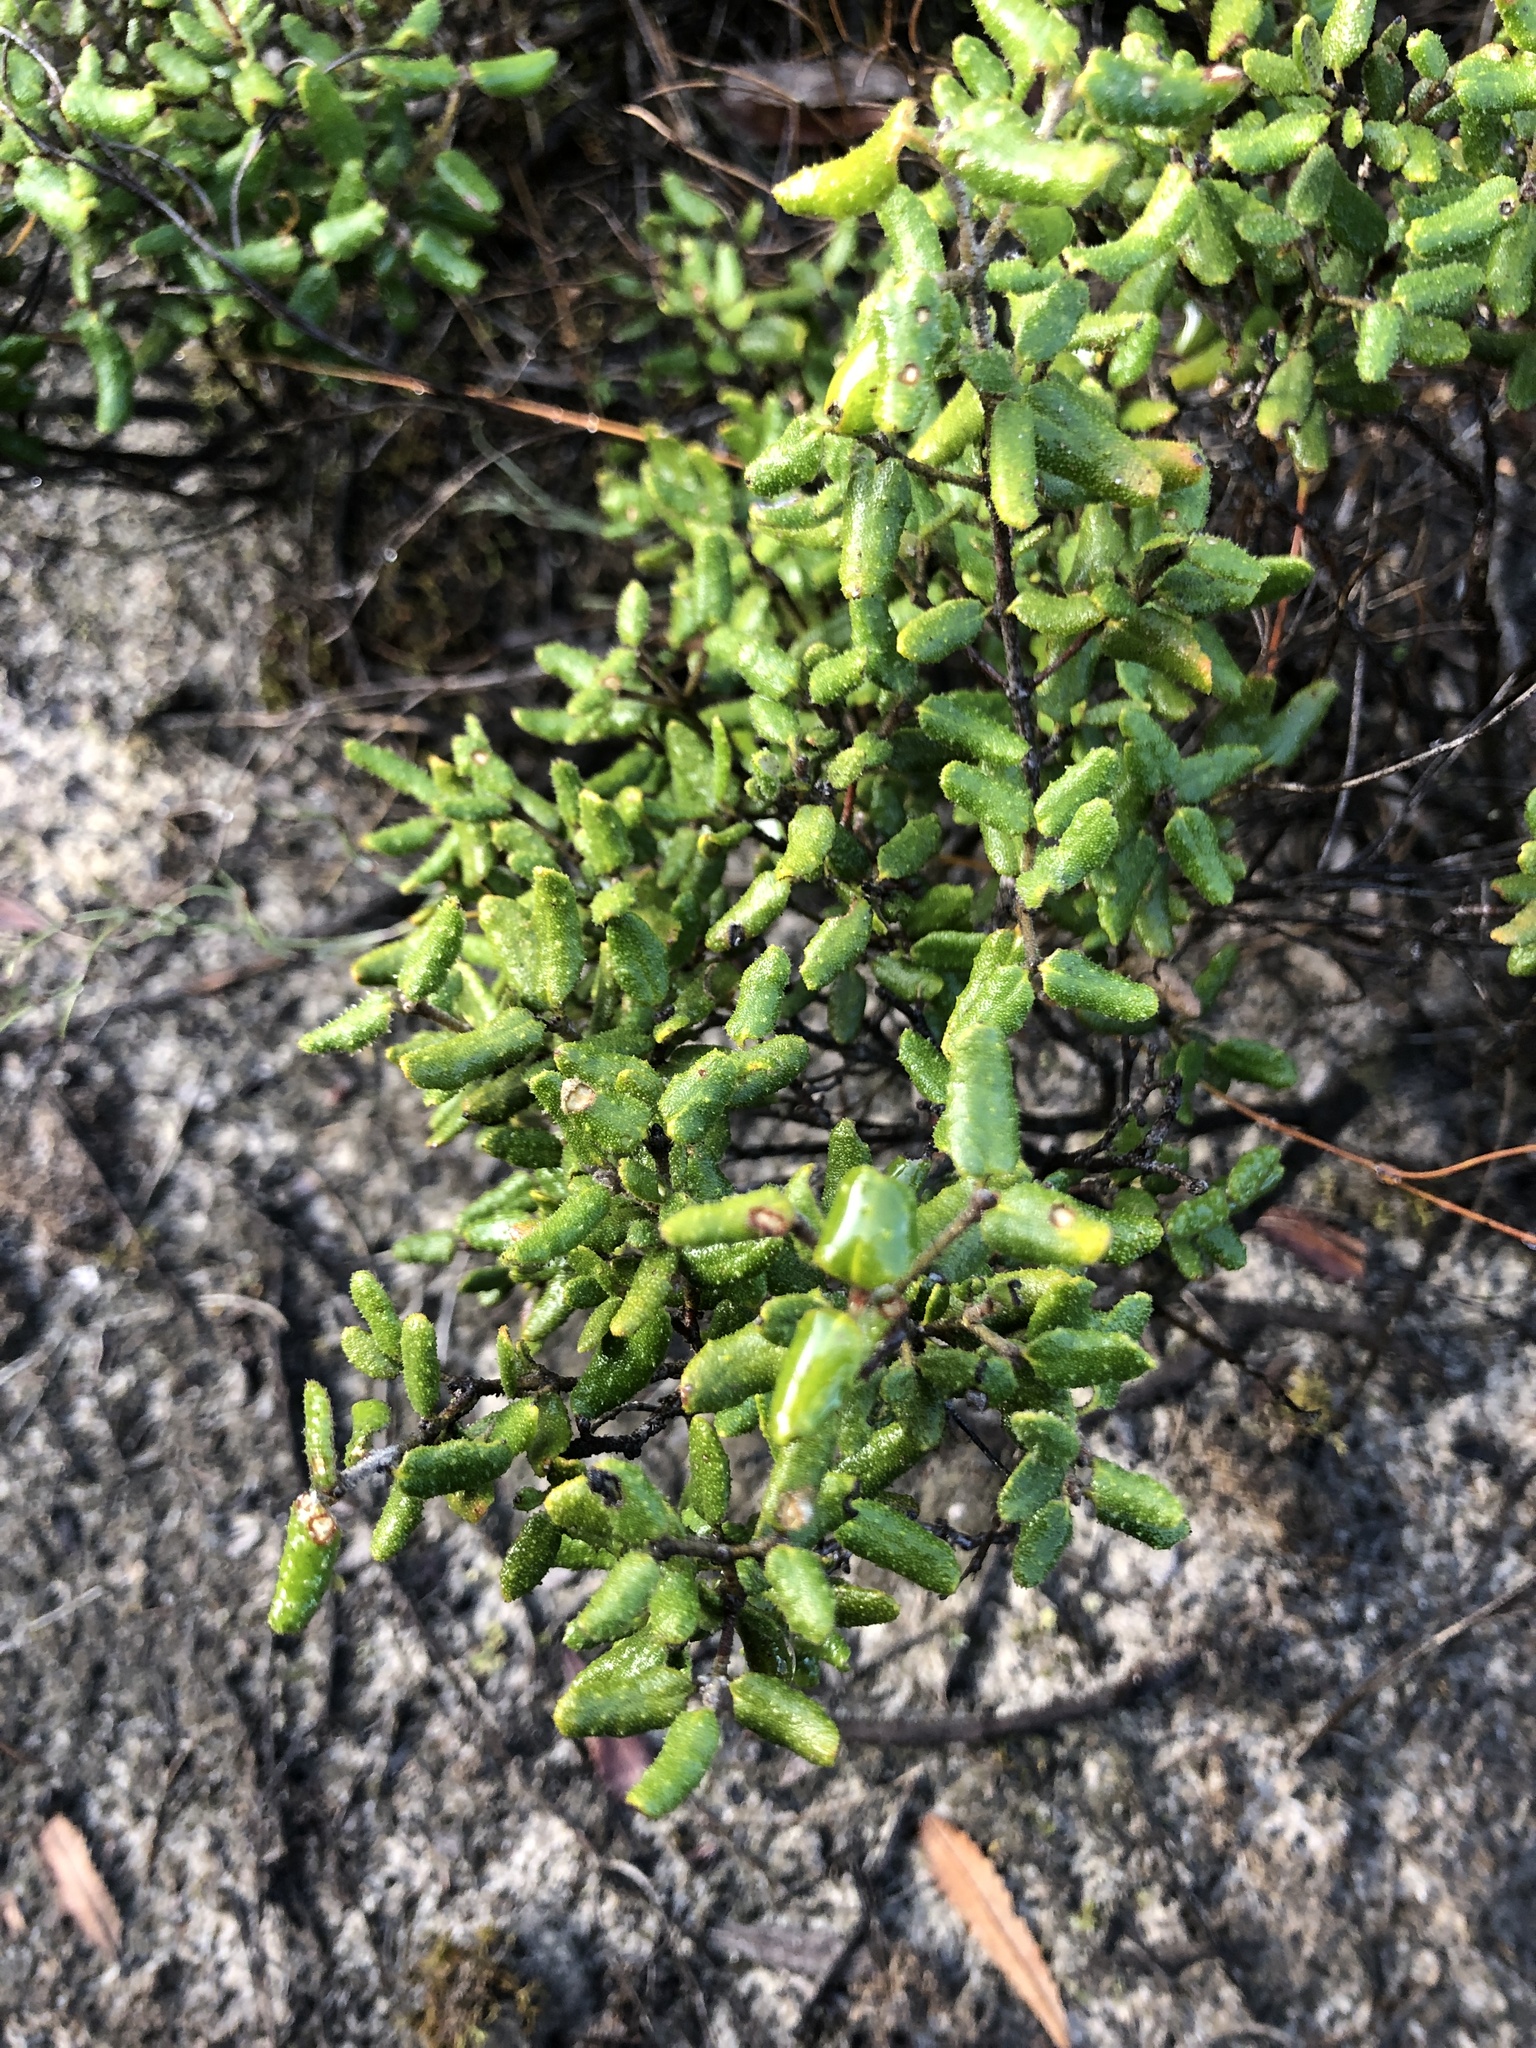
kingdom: Plantae
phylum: Tracheophyta
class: Magnoliopsida
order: Sapindales
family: Rutaceae
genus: Correa
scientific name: Correa reflexa
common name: Common correa
